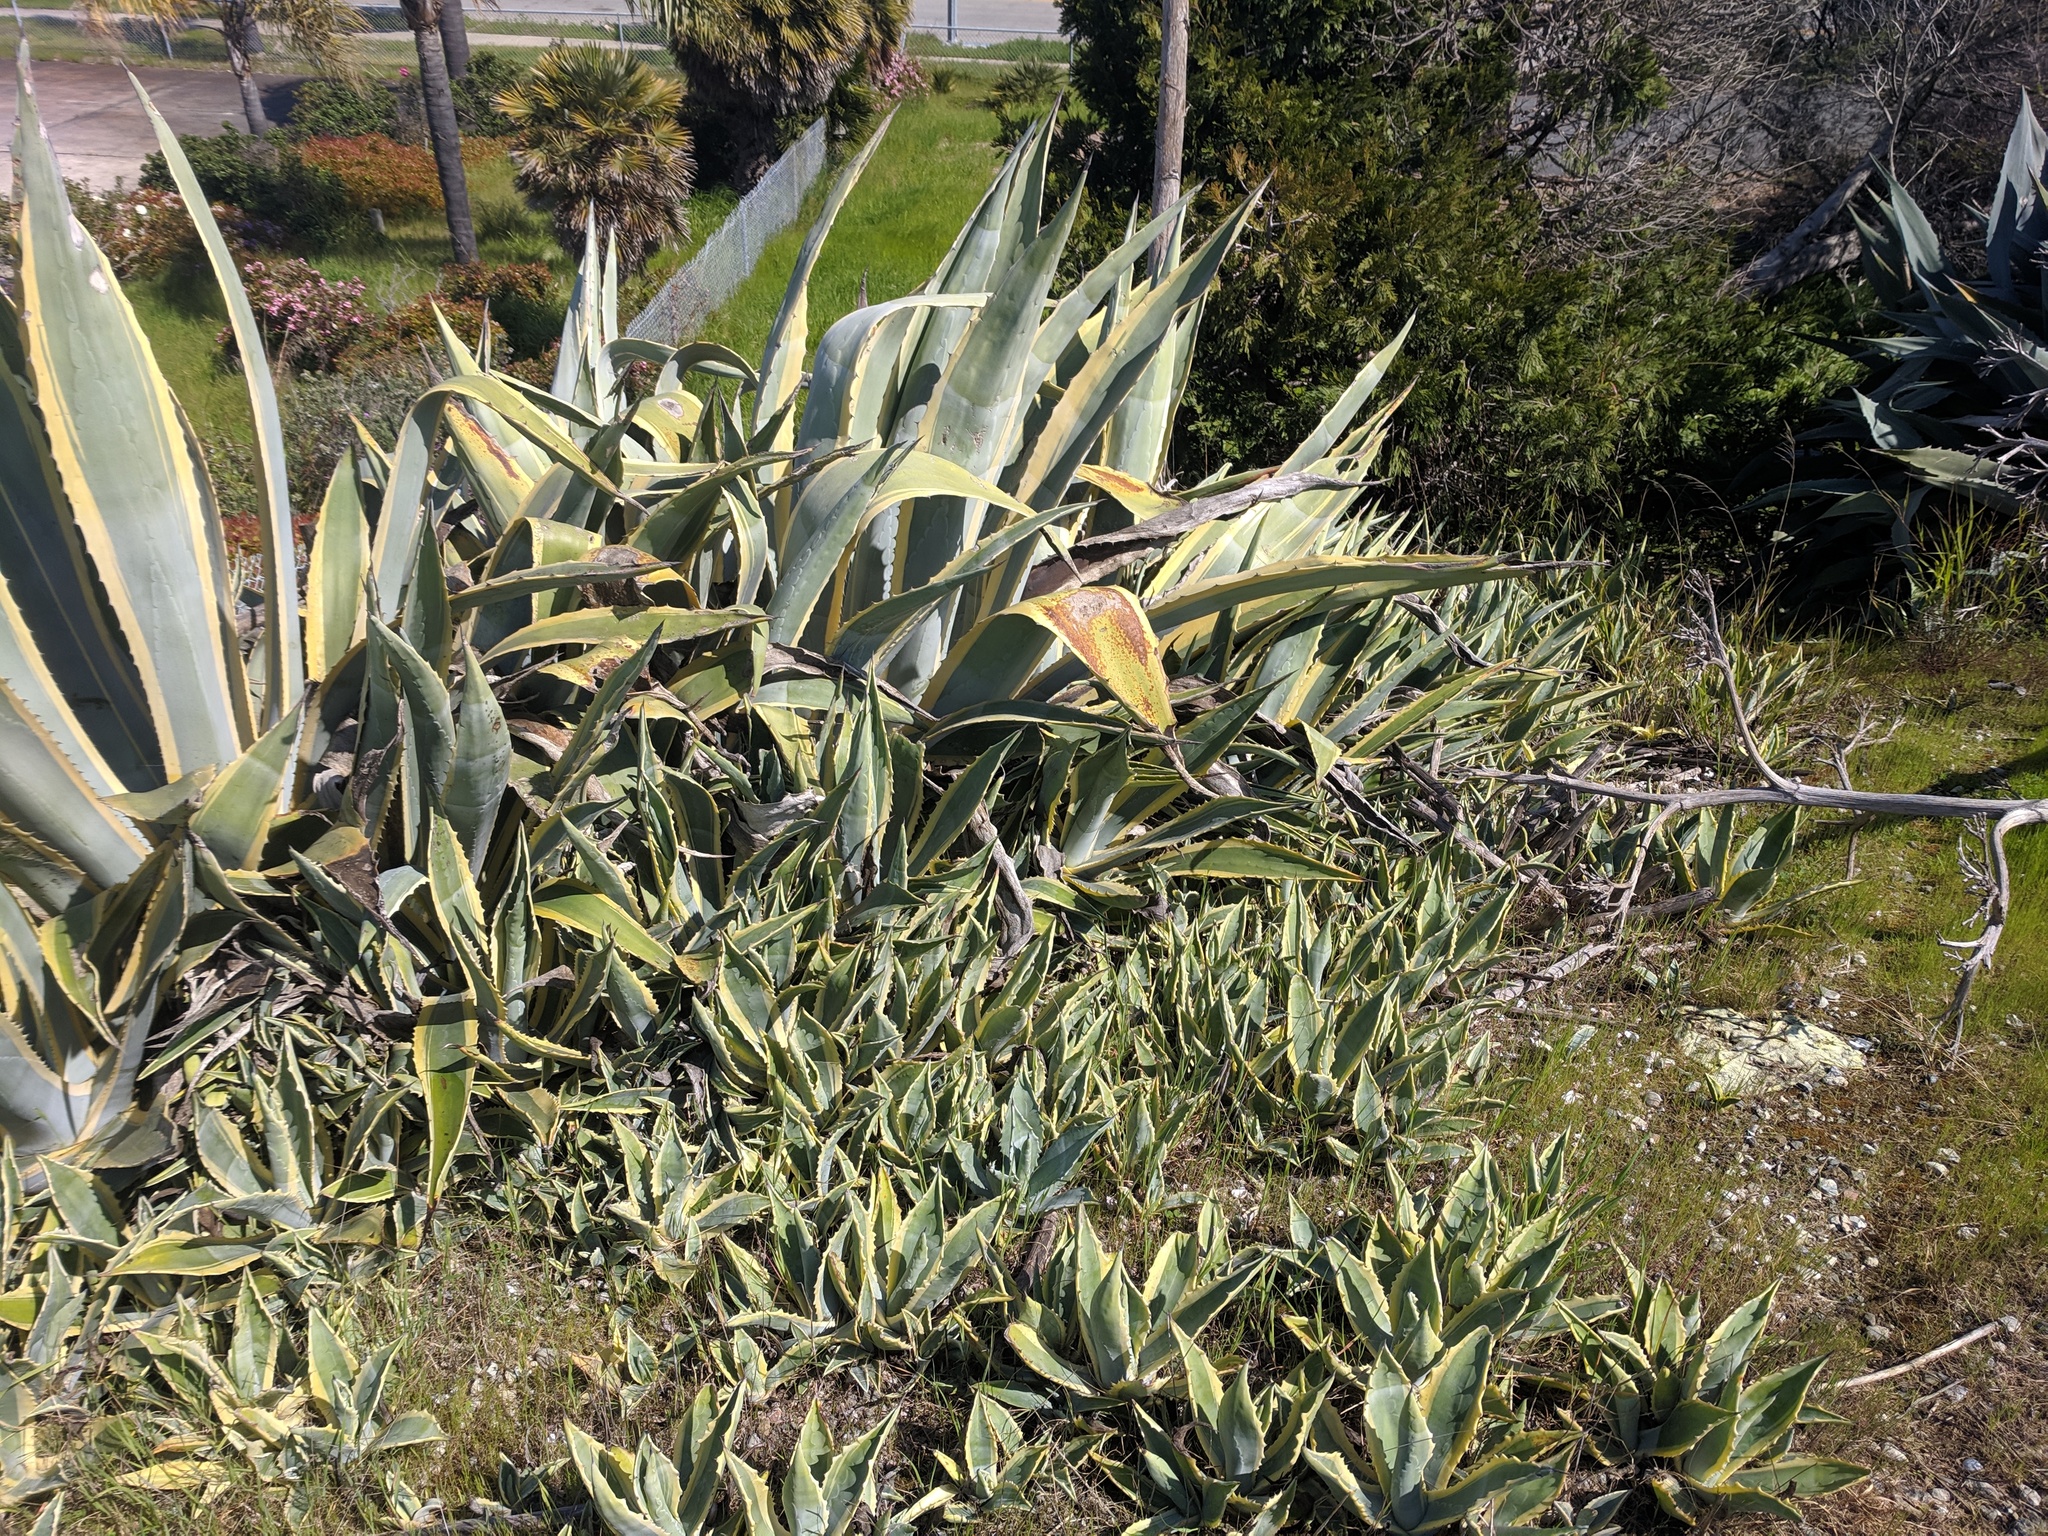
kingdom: Plantae
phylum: Tracheophyta
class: Liliopsida
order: Asparagales
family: Asparagaceae
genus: Agave
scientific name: Agave americana
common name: Centuryplant
